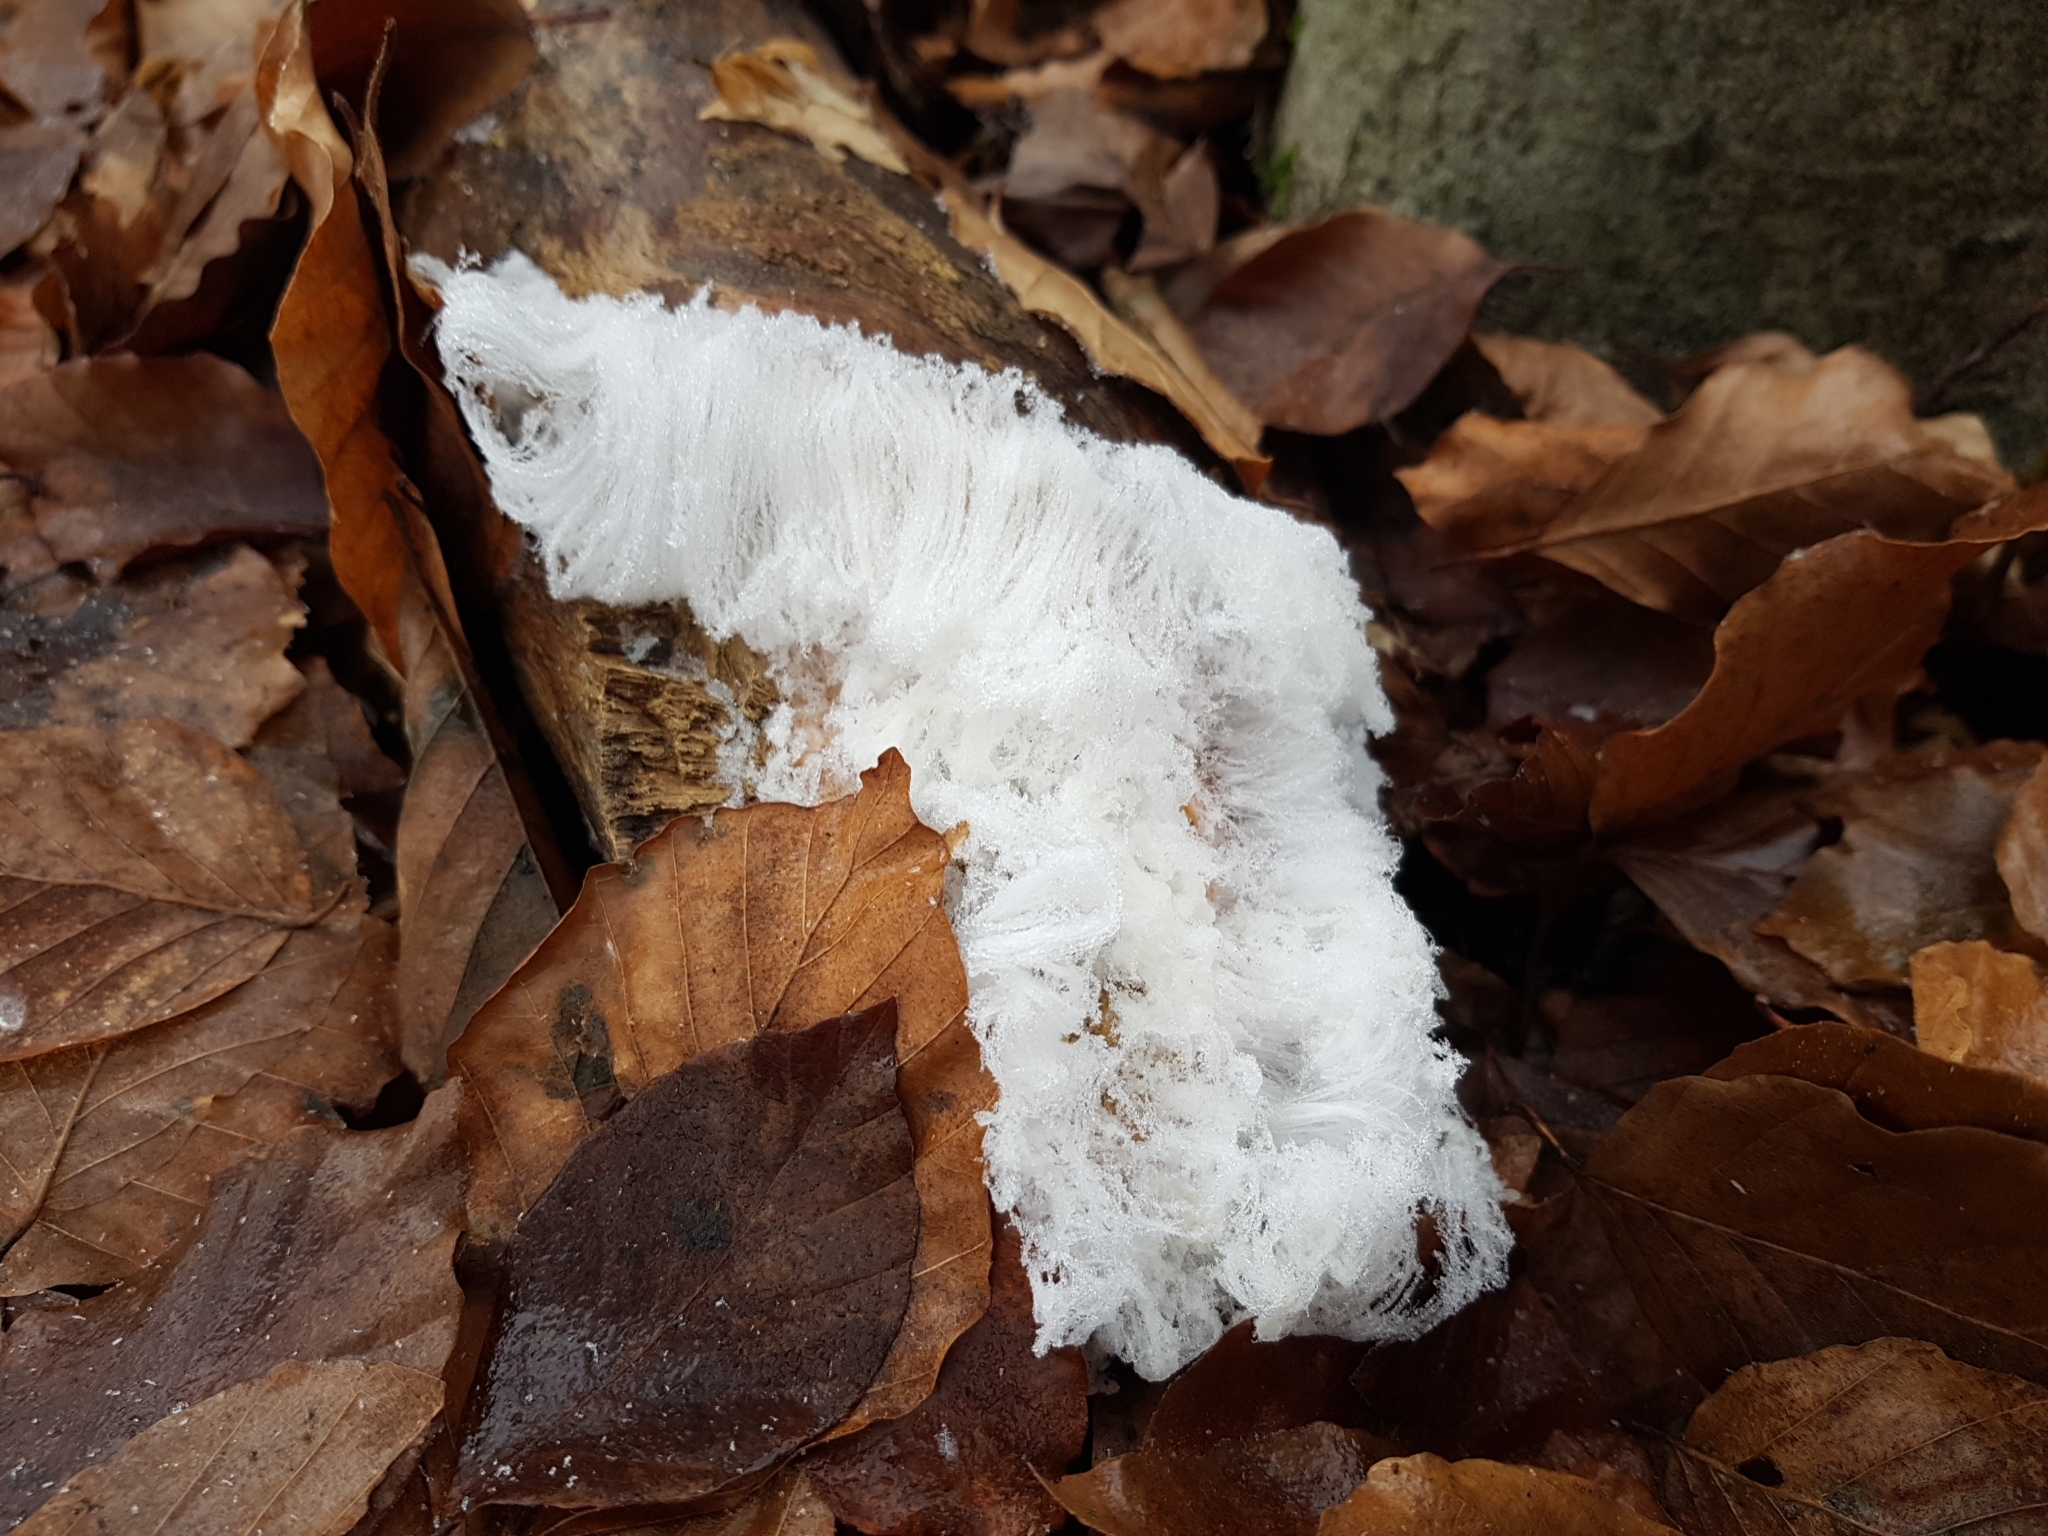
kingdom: Fungi
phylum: Basidiomycota
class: Agaricomycetes
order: Auriculariales
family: Auriculariaceae
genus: Exidiopsis
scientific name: Exidiopsis effusa
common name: Hair ice crust
